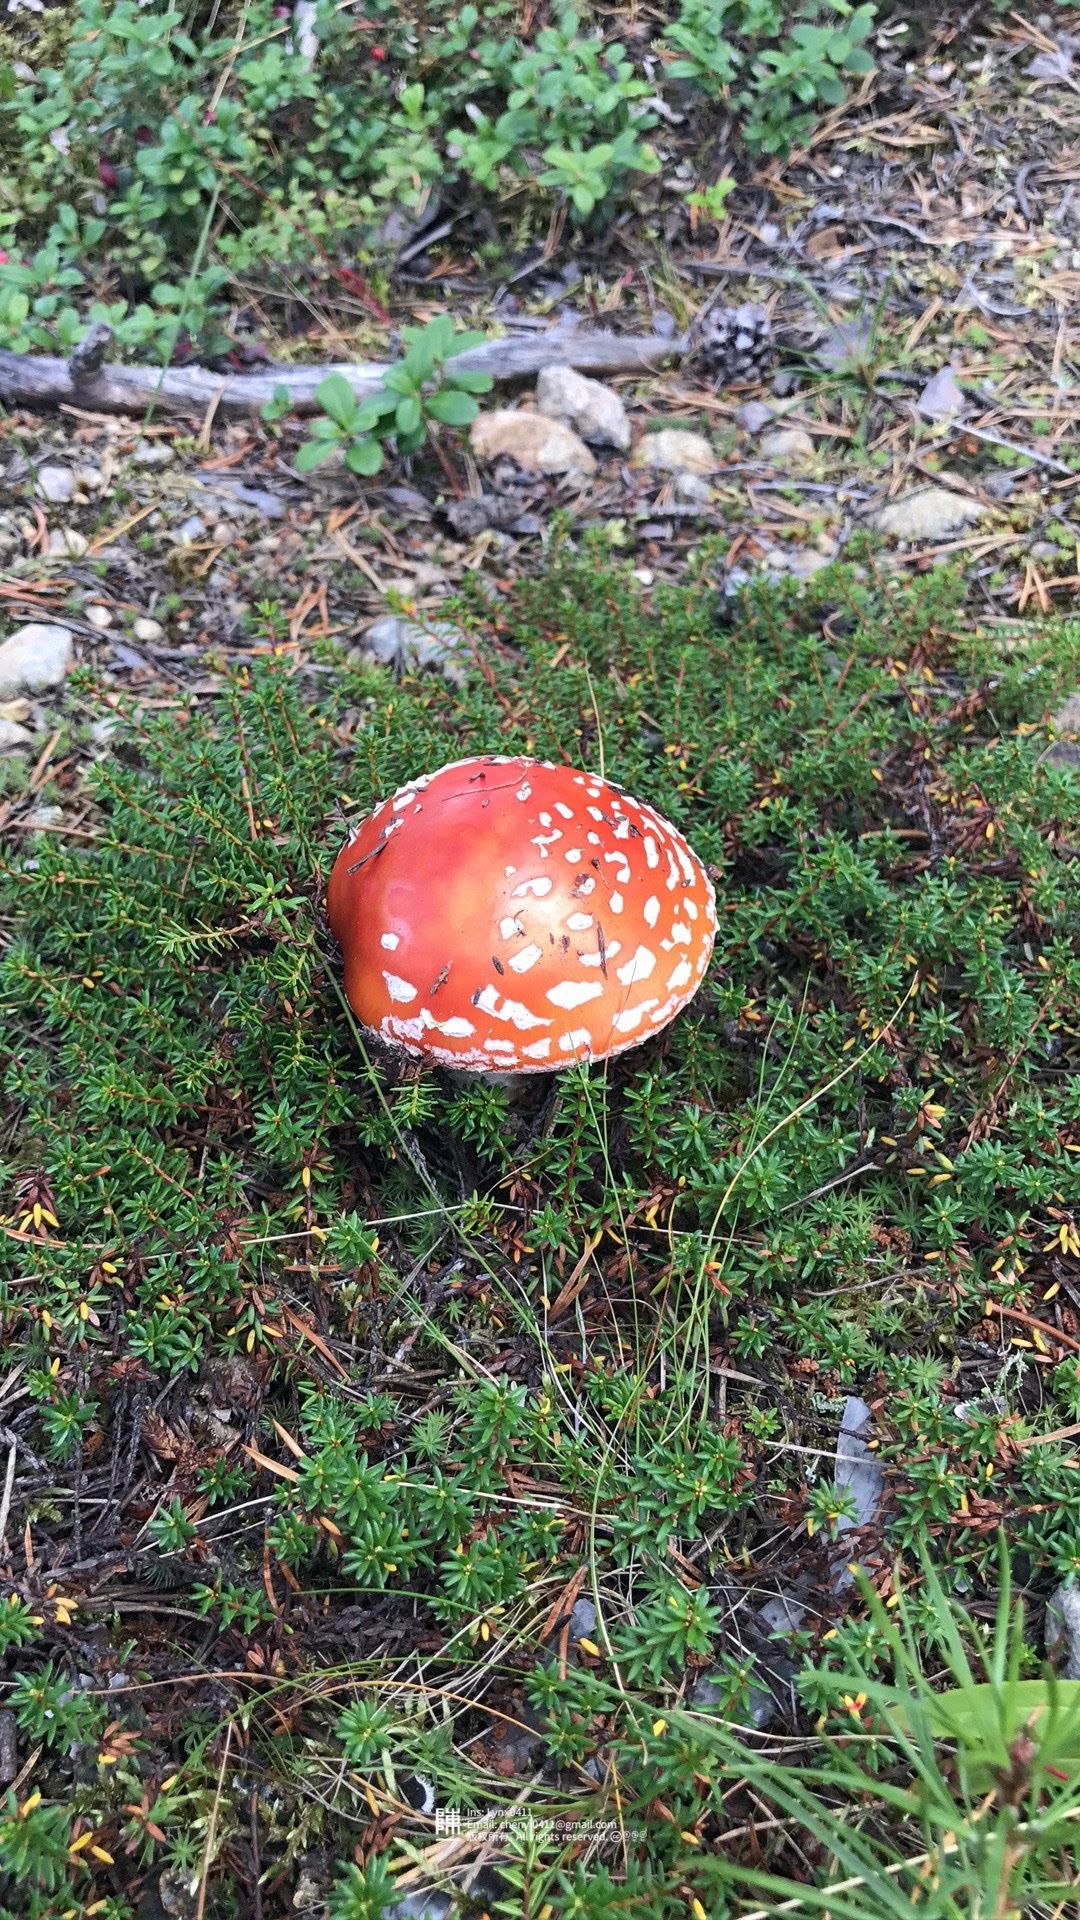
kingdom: Fungi
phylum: Basidiomycota
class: Agaricomycetes
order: Agaricales
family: Amanitaceae
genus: Amanita
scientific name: Amanita muscaria
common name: Fly agaric
